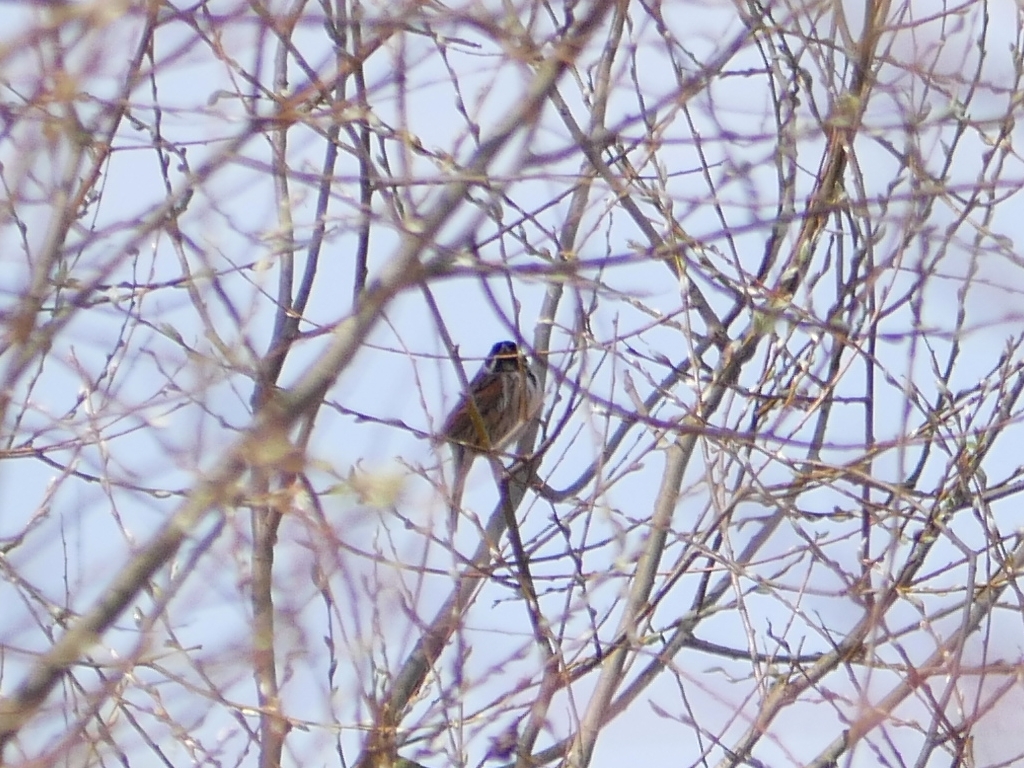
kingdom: Animalia
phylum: Chordata
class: Aves
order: Passeriformes
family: Emberizidae
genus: Emberiza
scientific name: Emberiza schoeniclus
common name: Reed bunting
